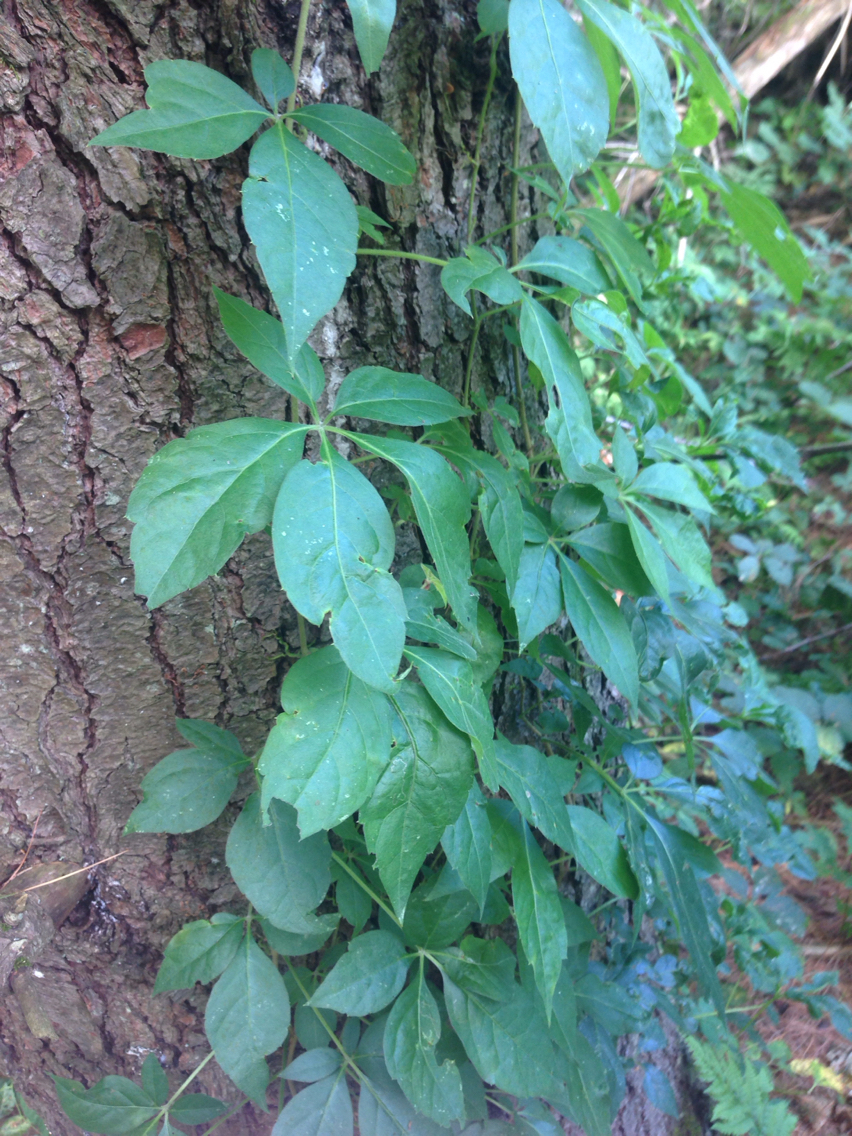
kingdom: Plantae
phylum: Tracheophyta
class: Magnoliopsida
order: Vitales
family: Vitaceae
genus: Parthenocissus
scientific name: Parthenocissus quinquefolia
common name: Virginia-creeper
